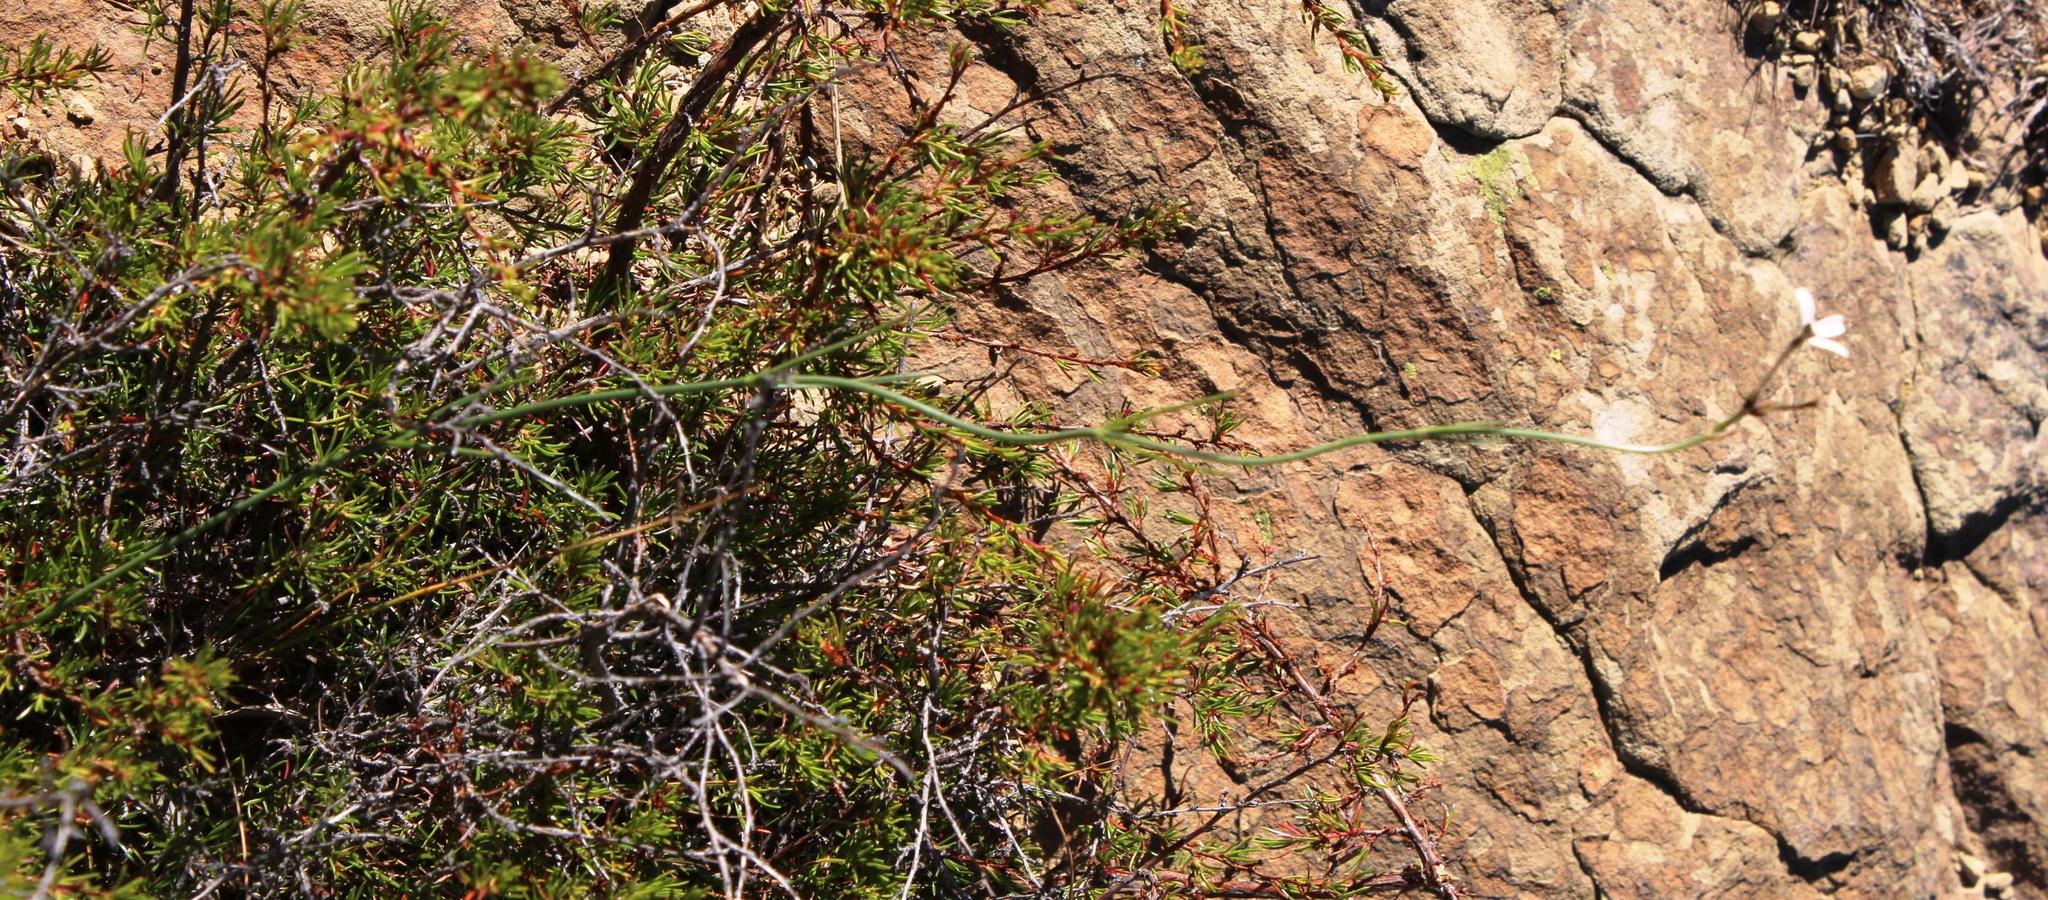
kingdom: Plantae
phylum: Tracheophyta
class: Magnoliopsida
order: Gentianales
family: Rubiaceae
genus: Kohautia
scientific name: Kohautia amatymbica
